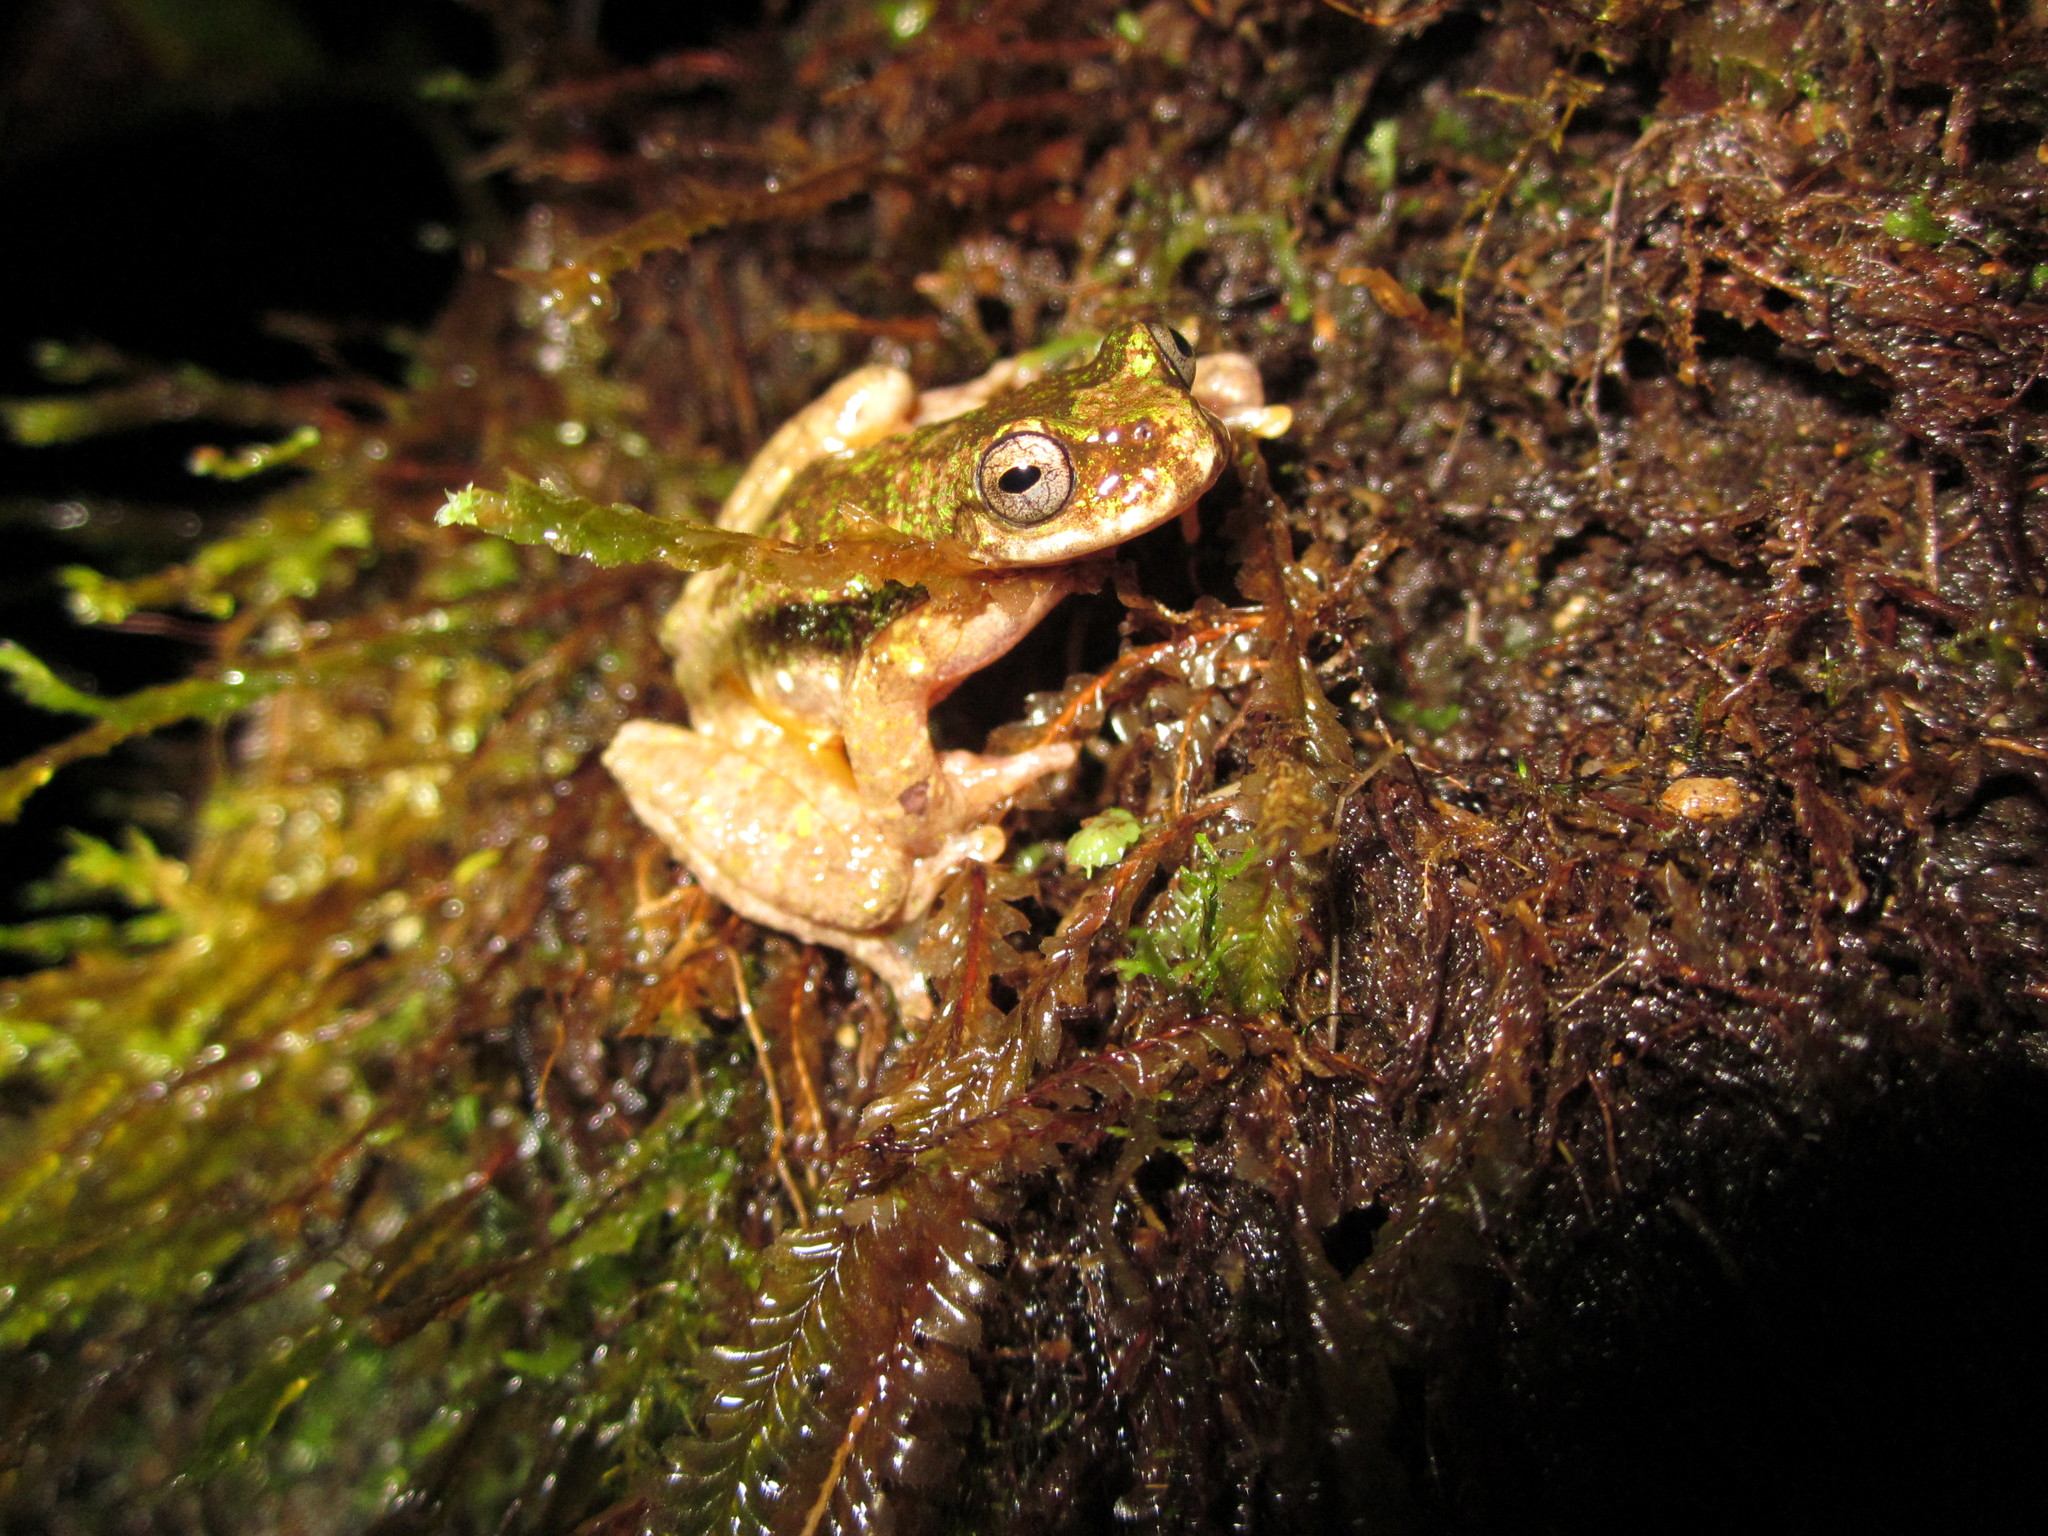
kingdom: Animalia
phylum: Chordata
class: Amphibia
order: Anura
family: Hylidae
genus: Isthmohyla
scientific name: Isthmohyla tica
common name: Starrett's treefrog
